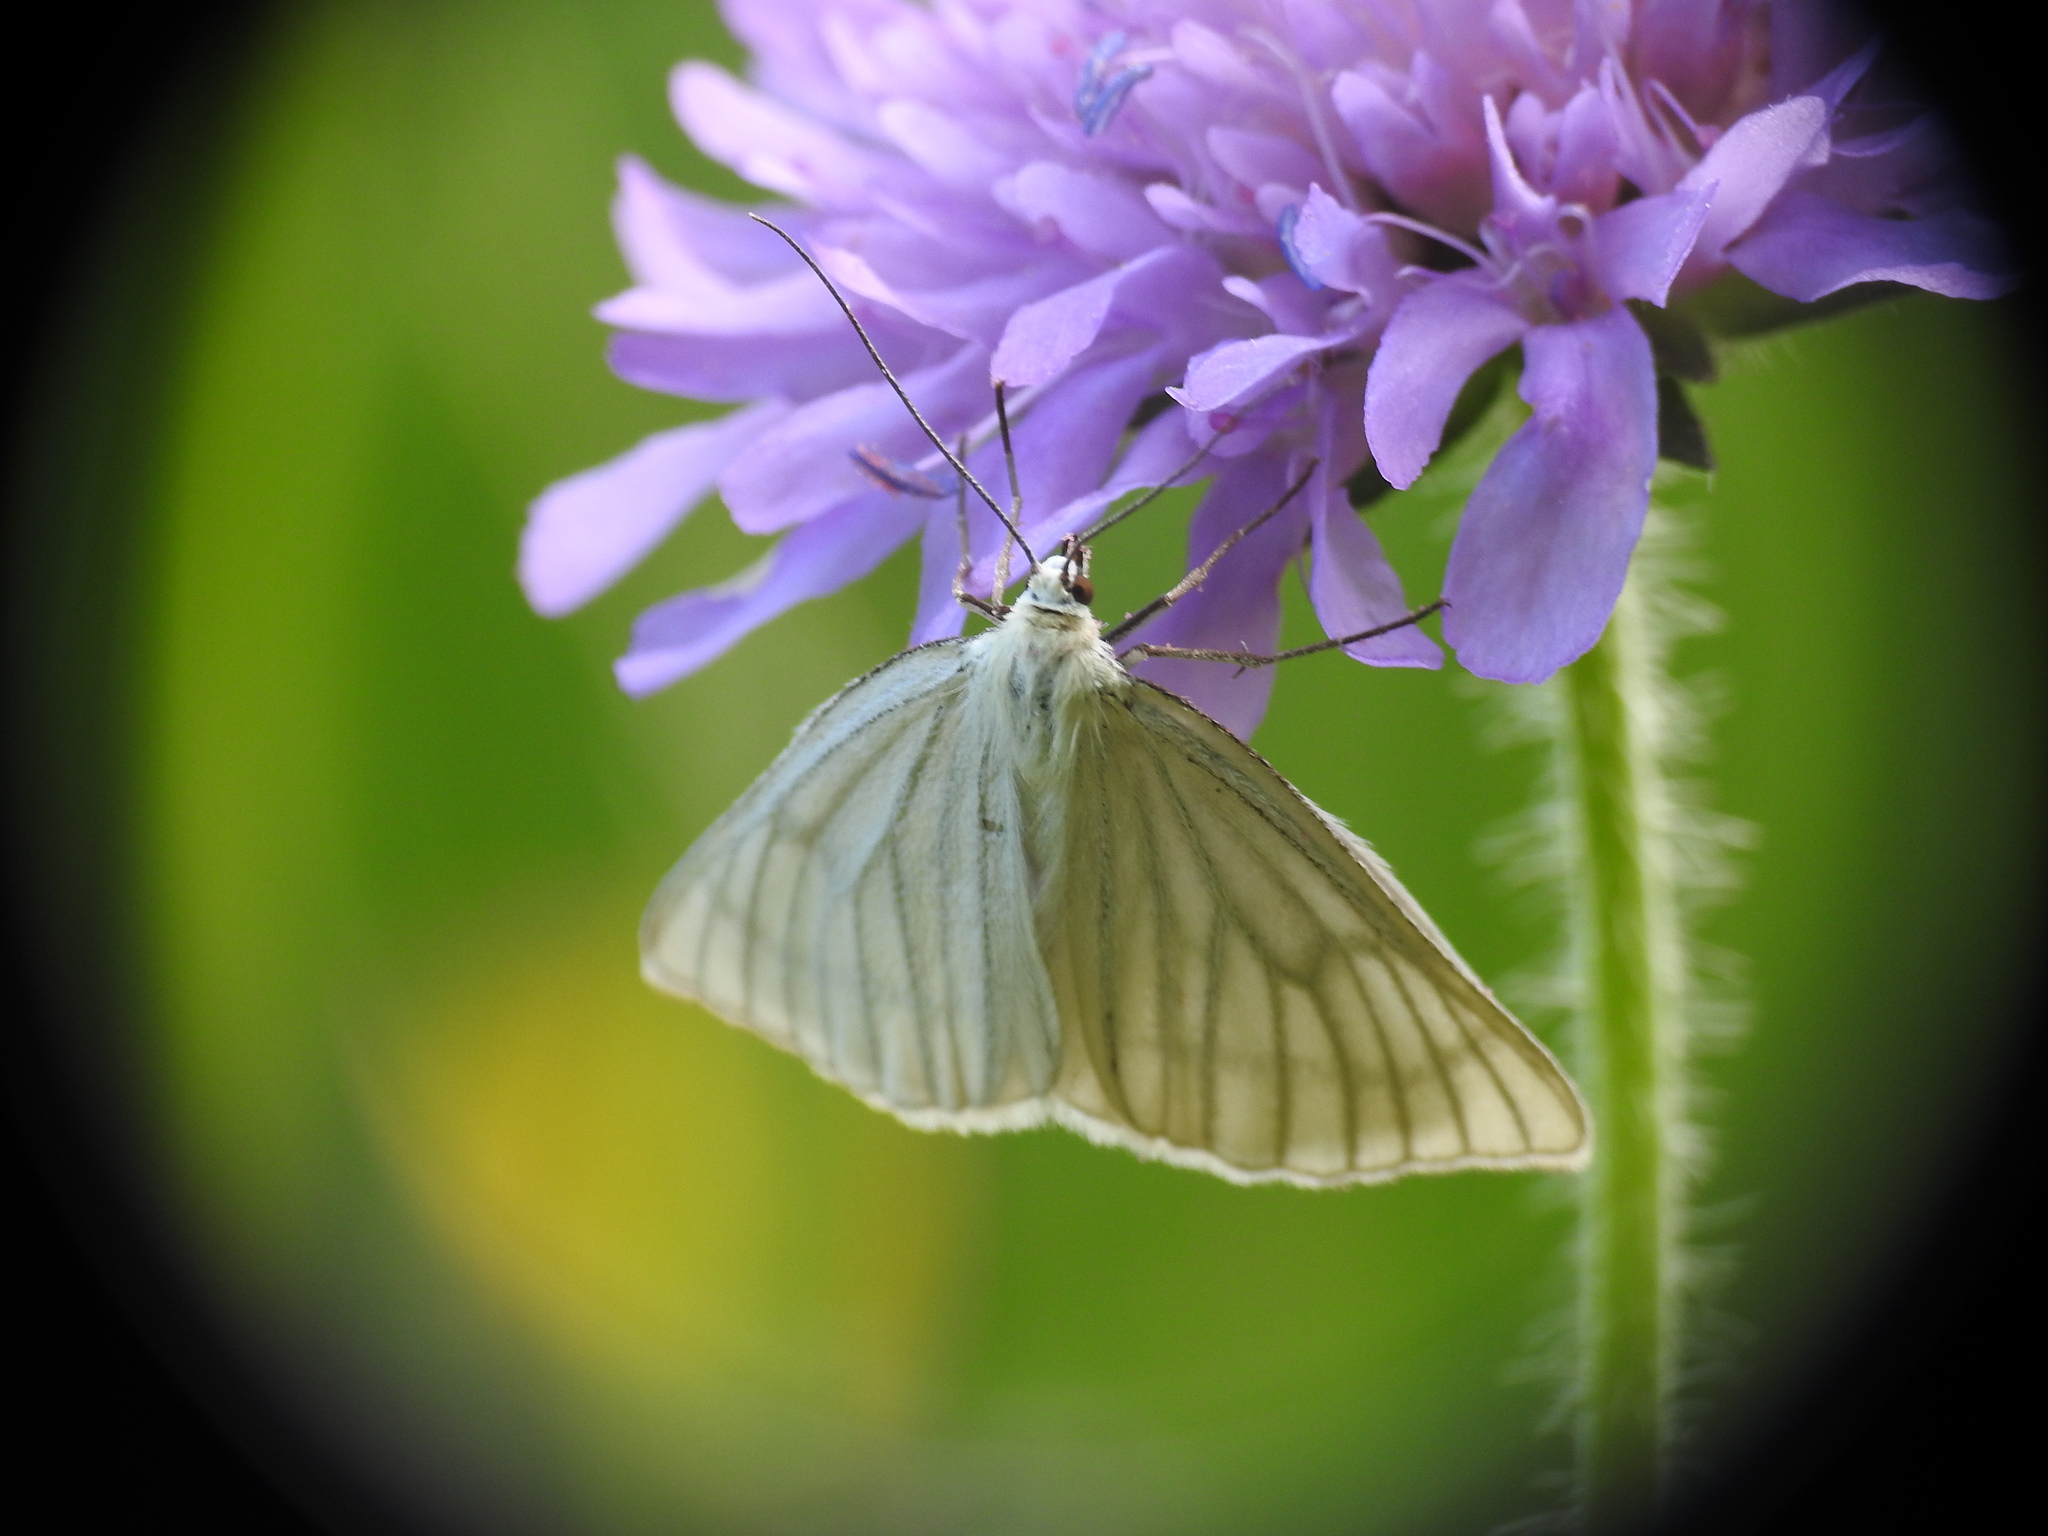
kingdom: Animalia
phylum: Arthropoda
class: Insecta
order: Lepidoptera
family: Geometridae
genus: Siona
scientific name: Siona lineata
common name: Black-veined moth
